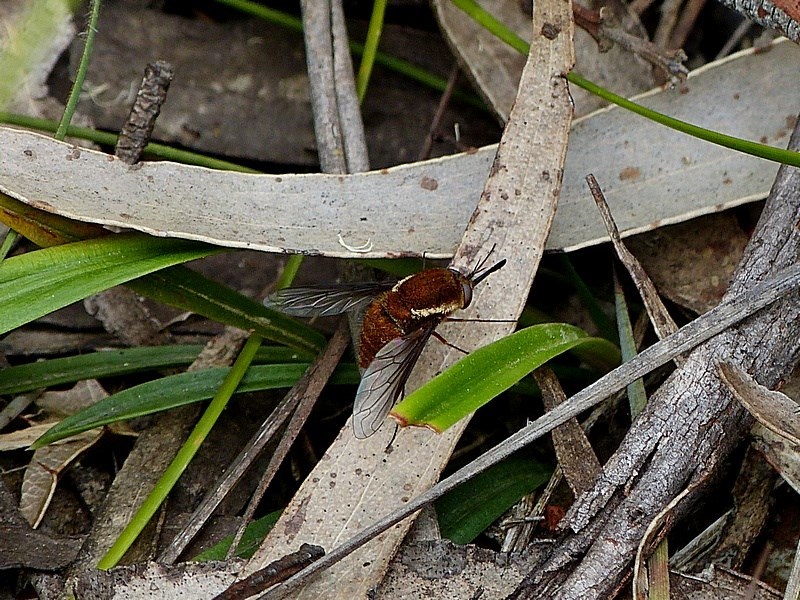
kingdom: Animalia
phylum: Arthropoda
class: Insecta
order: Diptera
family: Bombyliidae
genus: Staurostichus
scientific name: Staurostichus limbipennis
